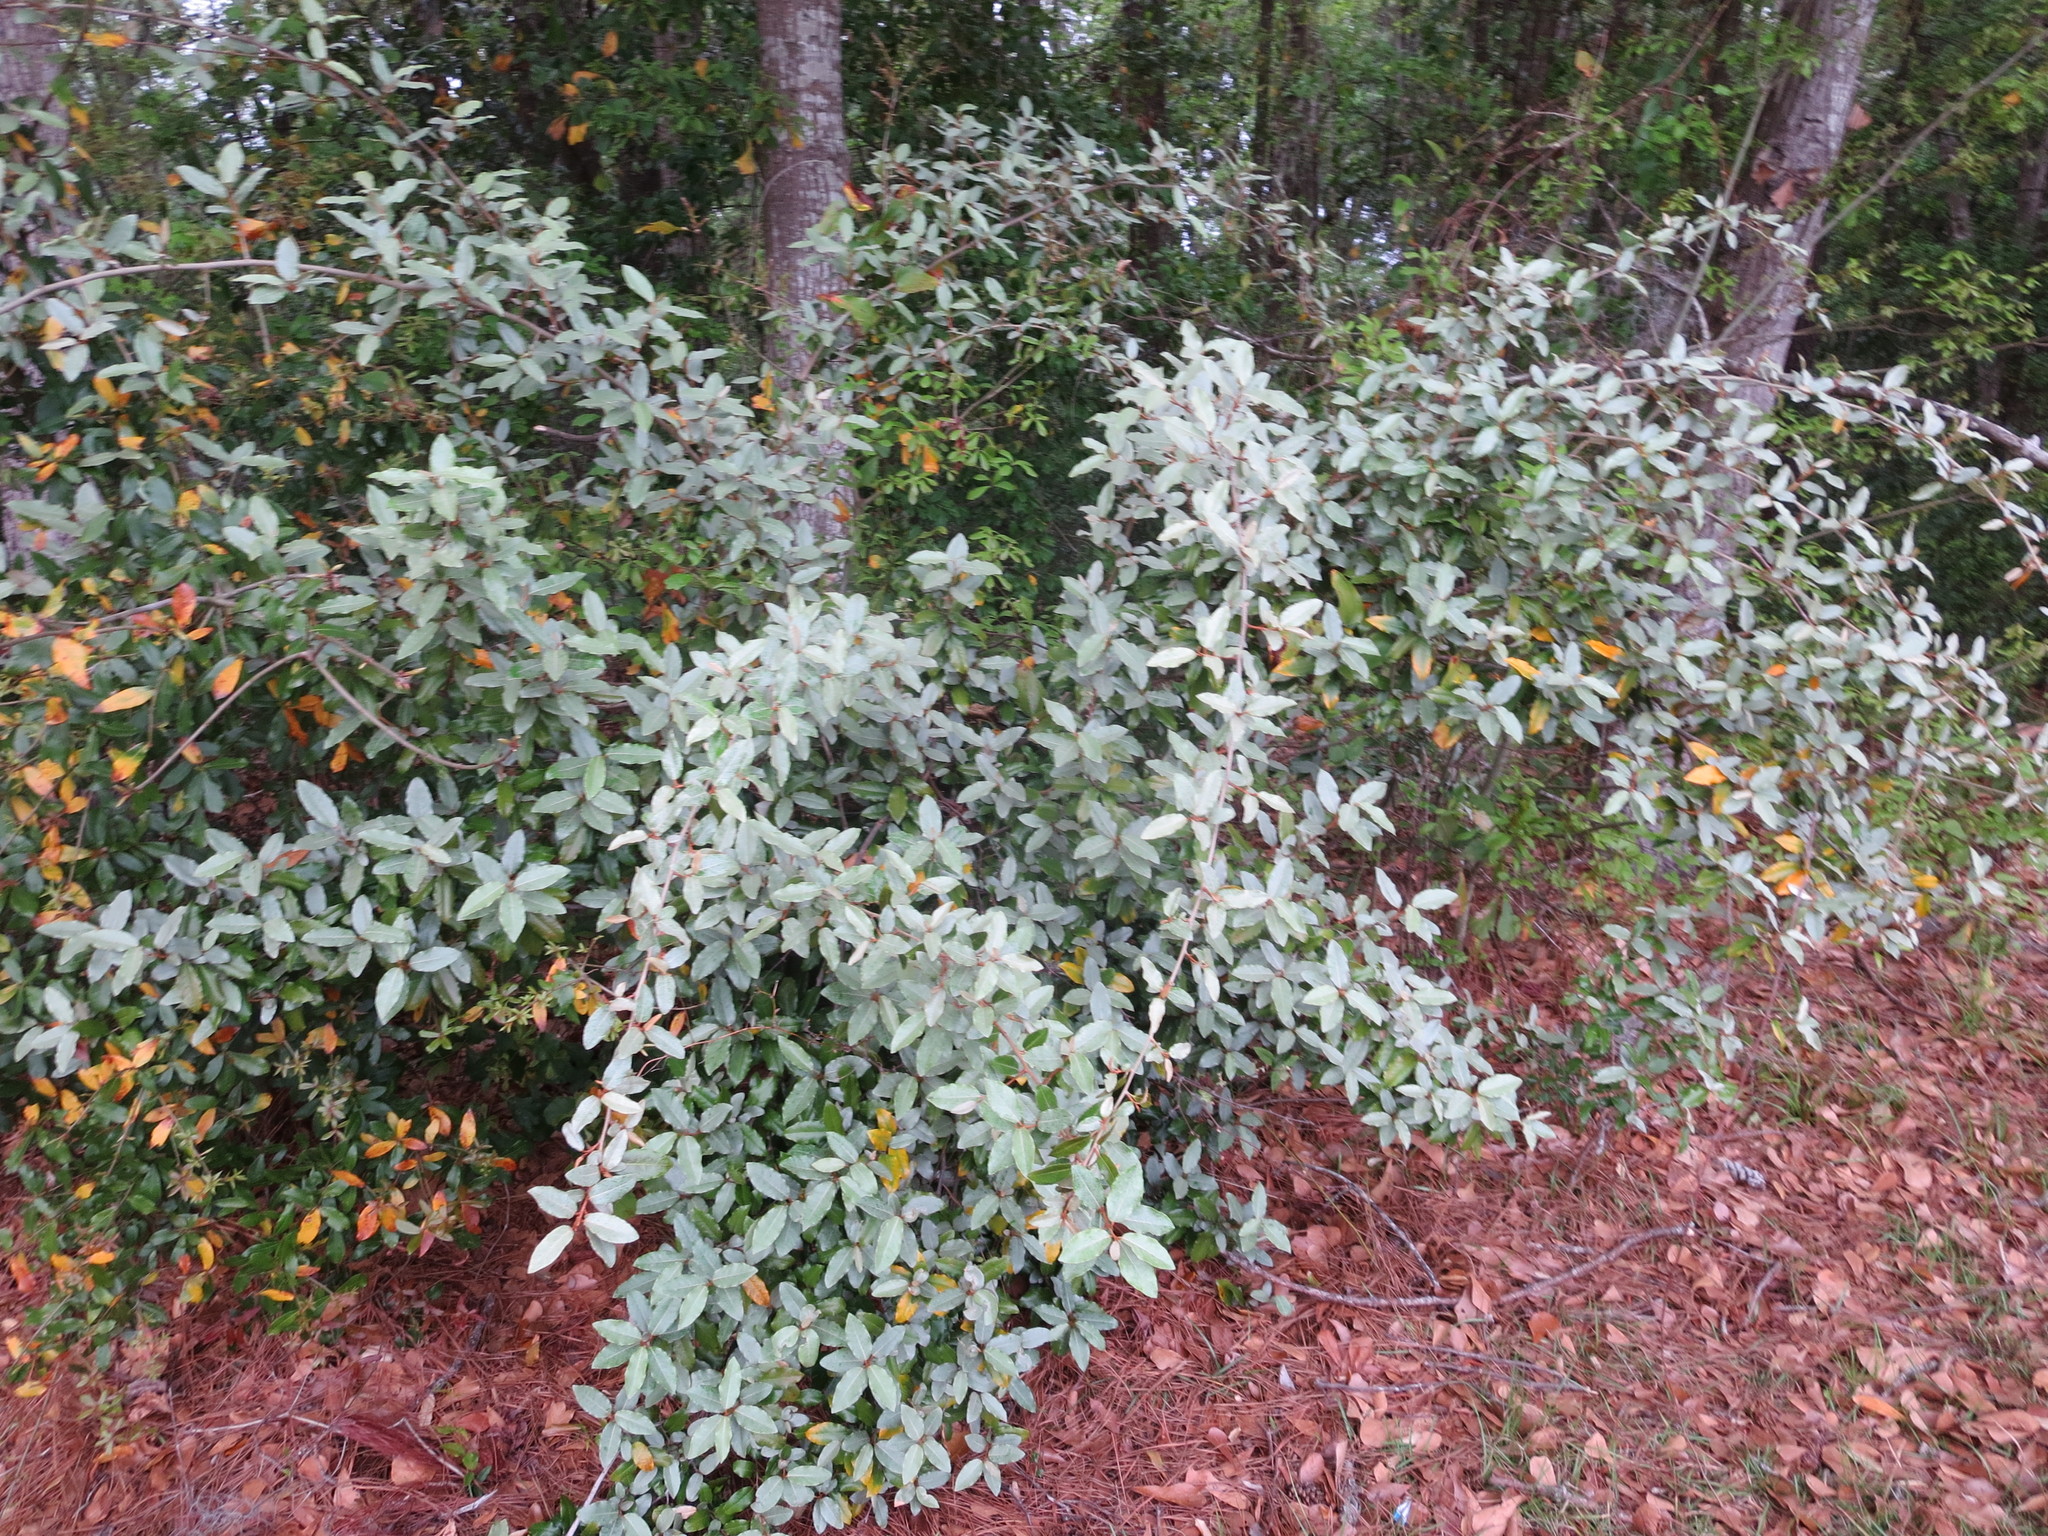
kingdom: Plantae
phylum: Tracheophyta
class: Magnoliopsida
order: Rosales
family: Elaeagnaceae
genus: Elaeagnus
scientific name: Elaeagnus pungens
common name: Spiny oleaster
